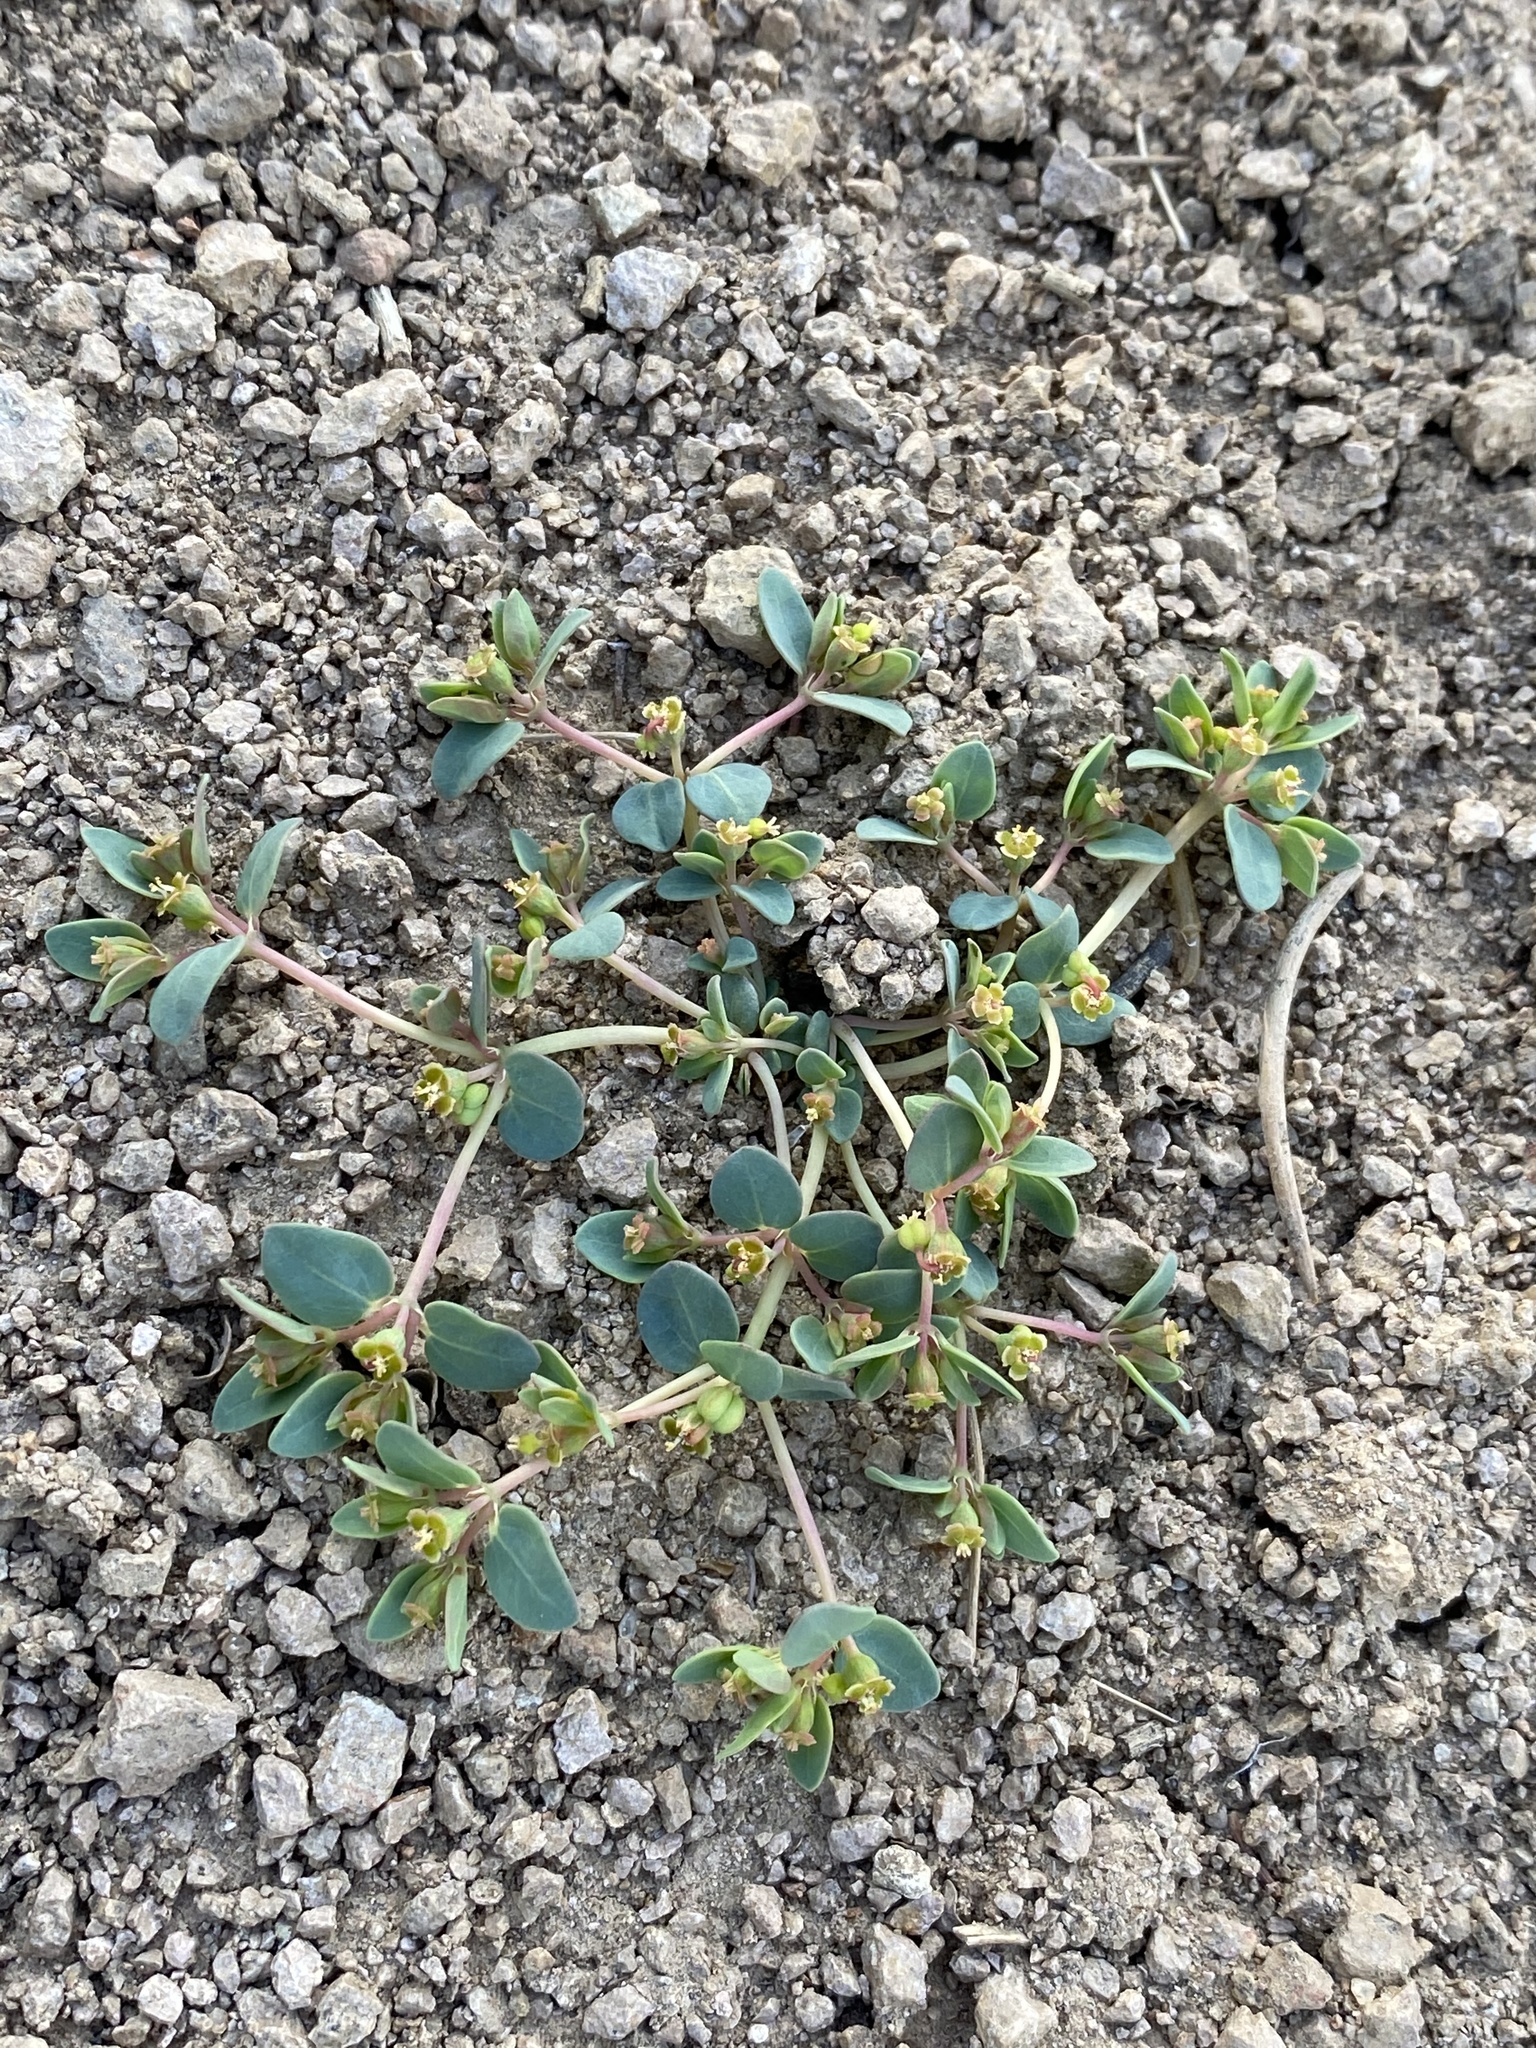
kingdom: Plantae
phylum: Tracheophyta
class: Magnoliopsida
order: Malpighiales
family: Euphorbiaceae
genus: Euphorbia
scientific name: Euphorbia fendleri
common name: Fendler's euphorbia
